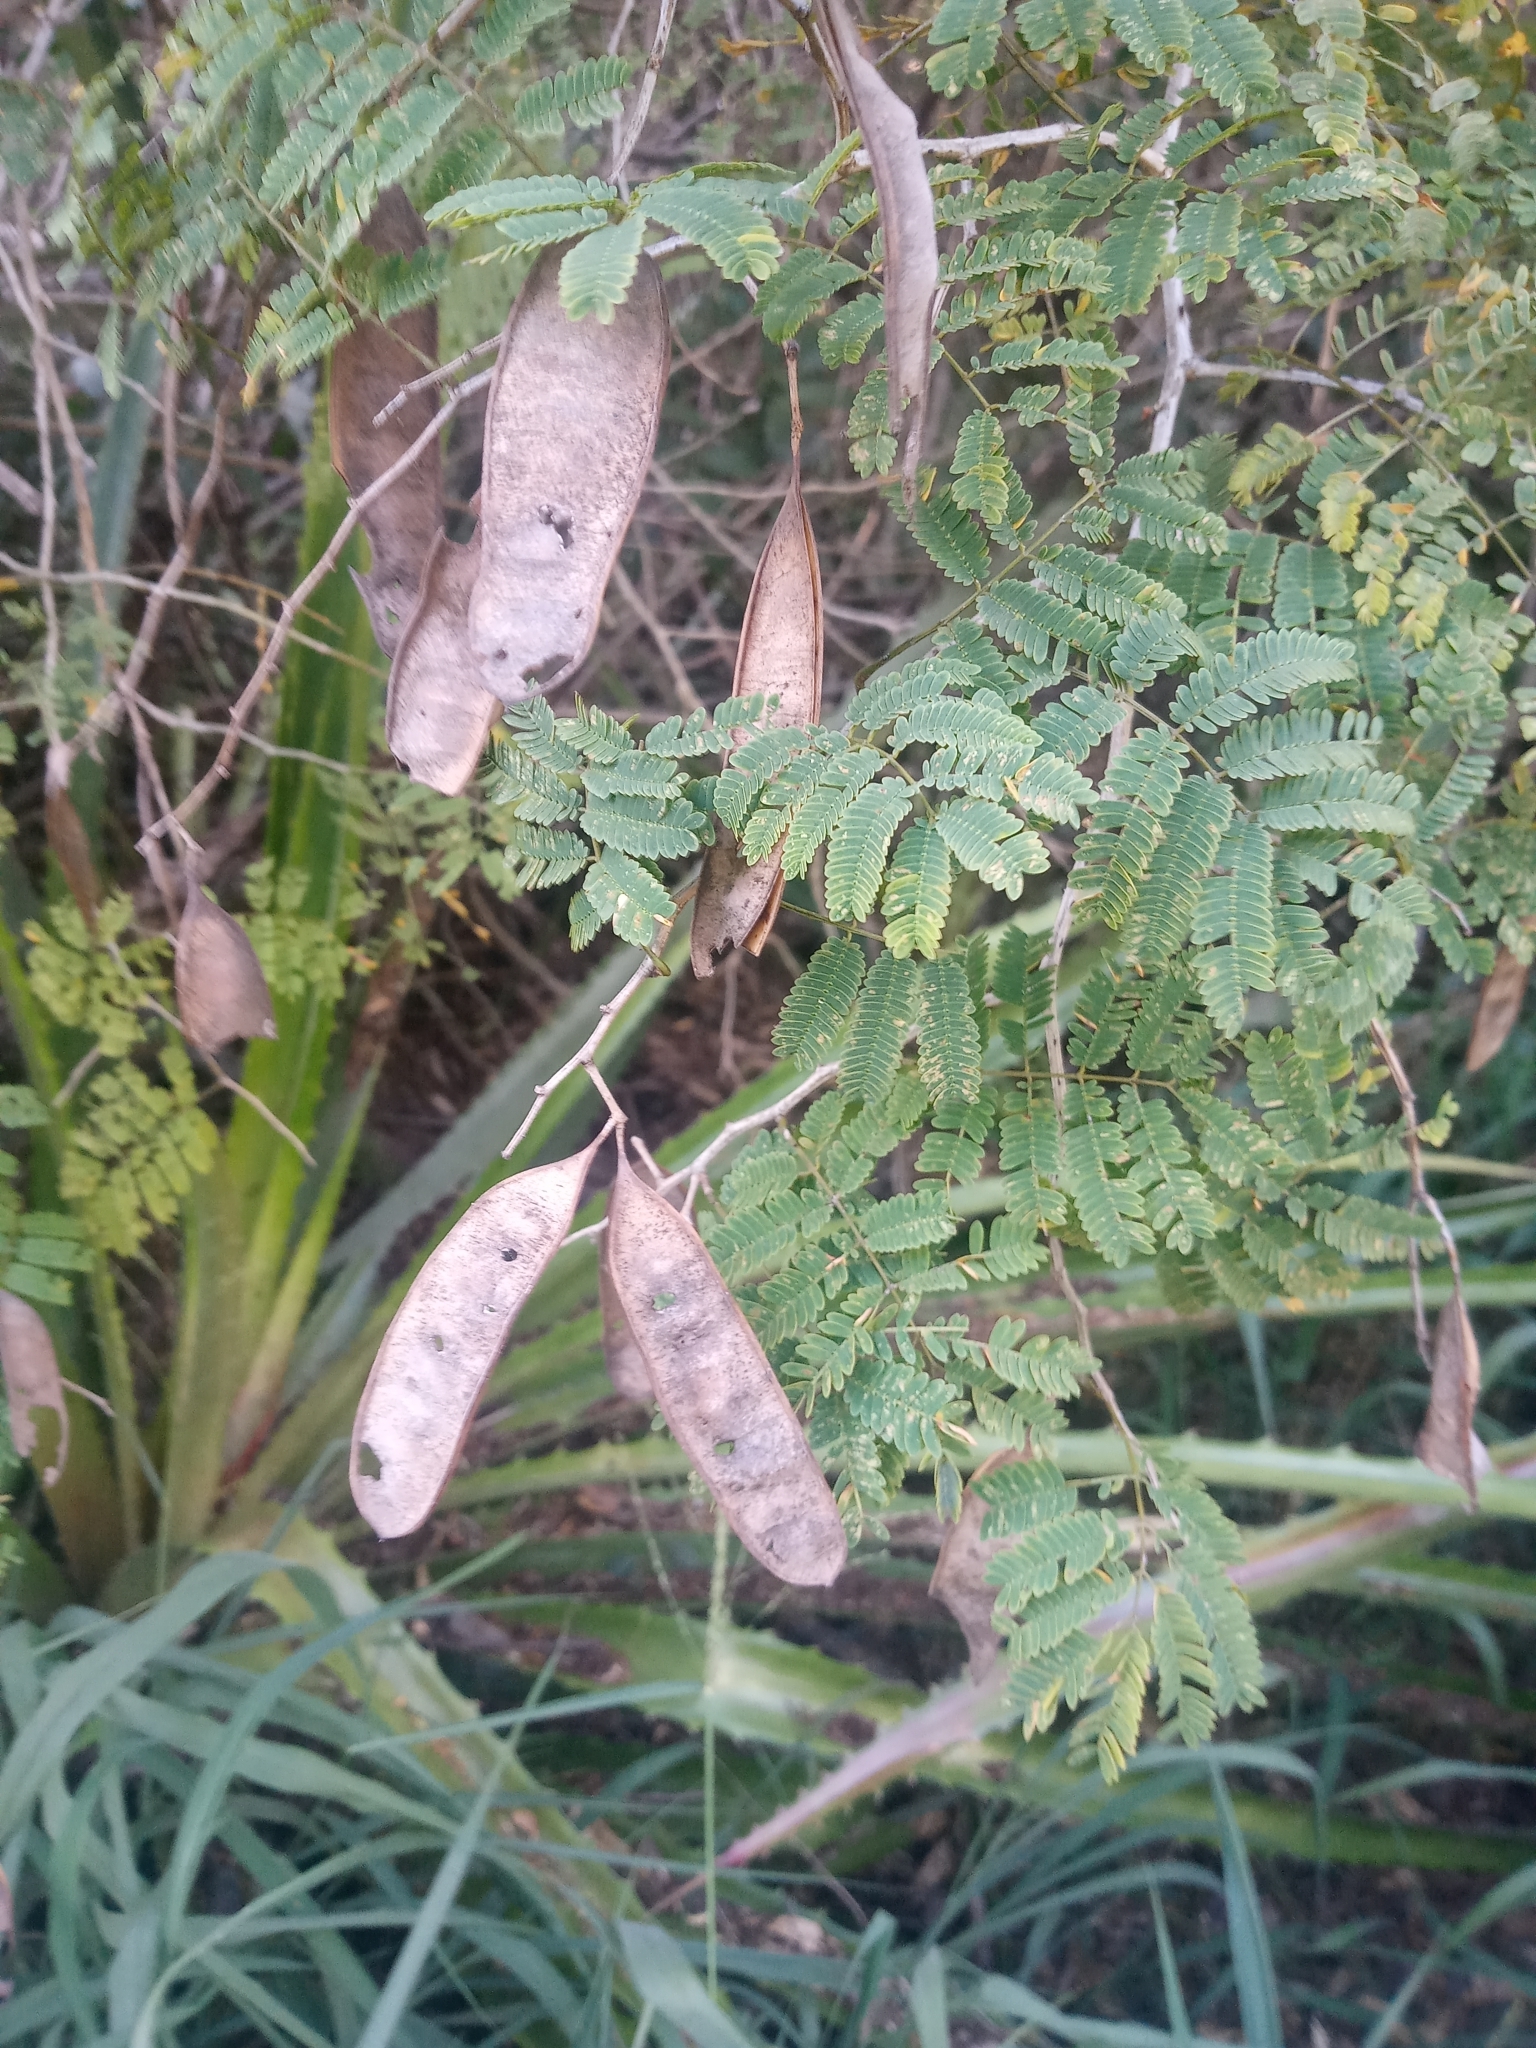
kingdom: Plantae
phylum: Tracheophyta
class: Magnoliopsida
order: Fabales
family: Fabaceae
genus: Senegalia
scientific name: Senegalia riparia
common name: Catch-and-keep
